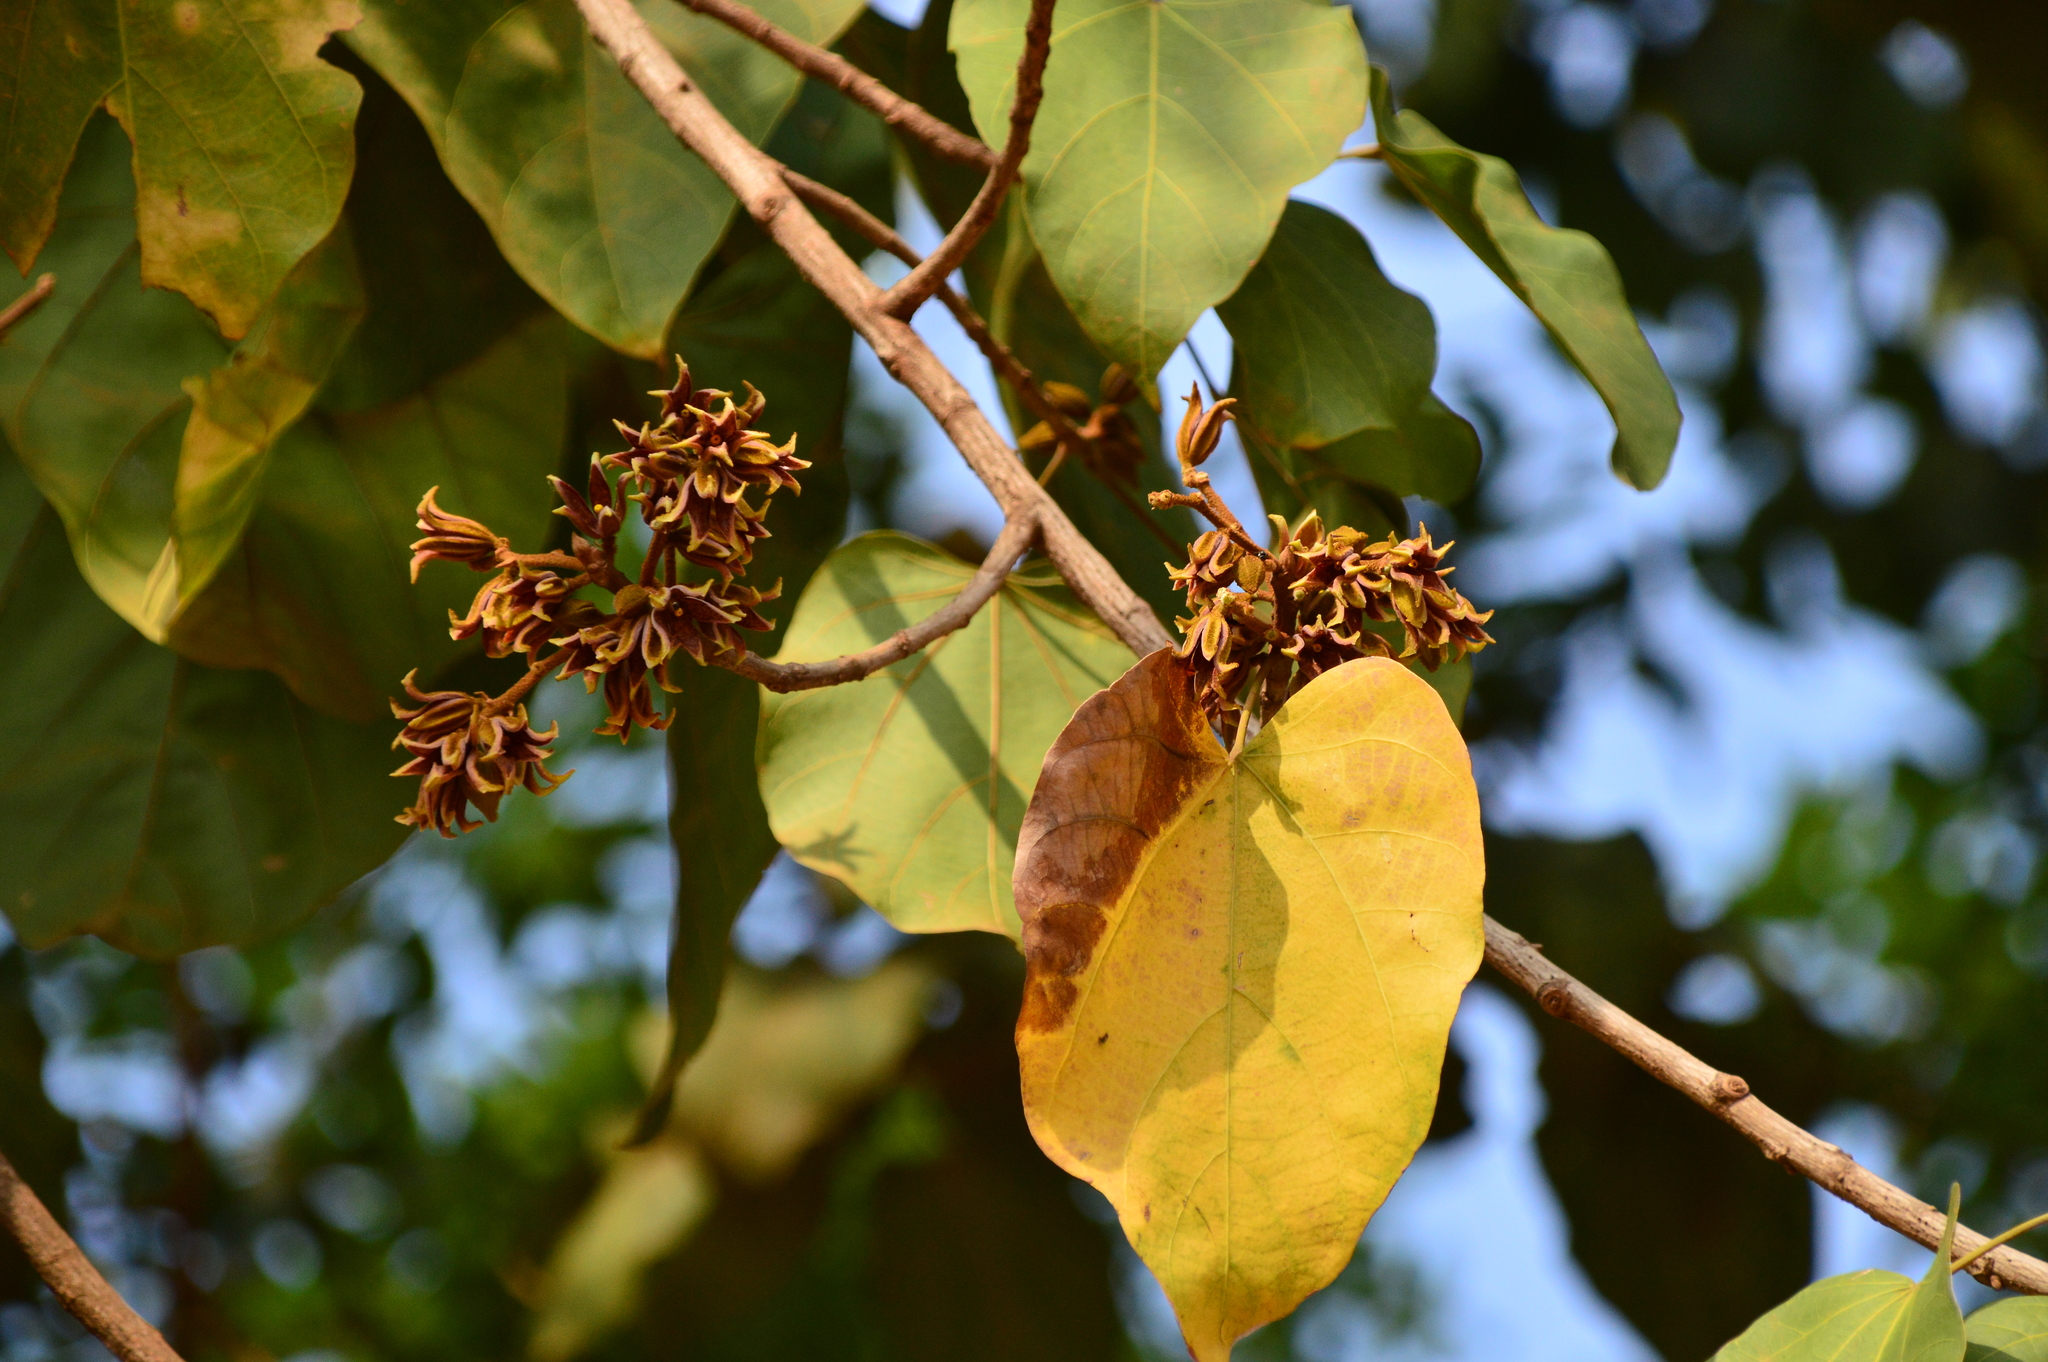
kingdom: Plantae
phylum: Tracheophyta
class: Magnoliopsida
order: Malvales
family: Malvaceae
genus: Pterygota
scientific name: Pterygota alata
